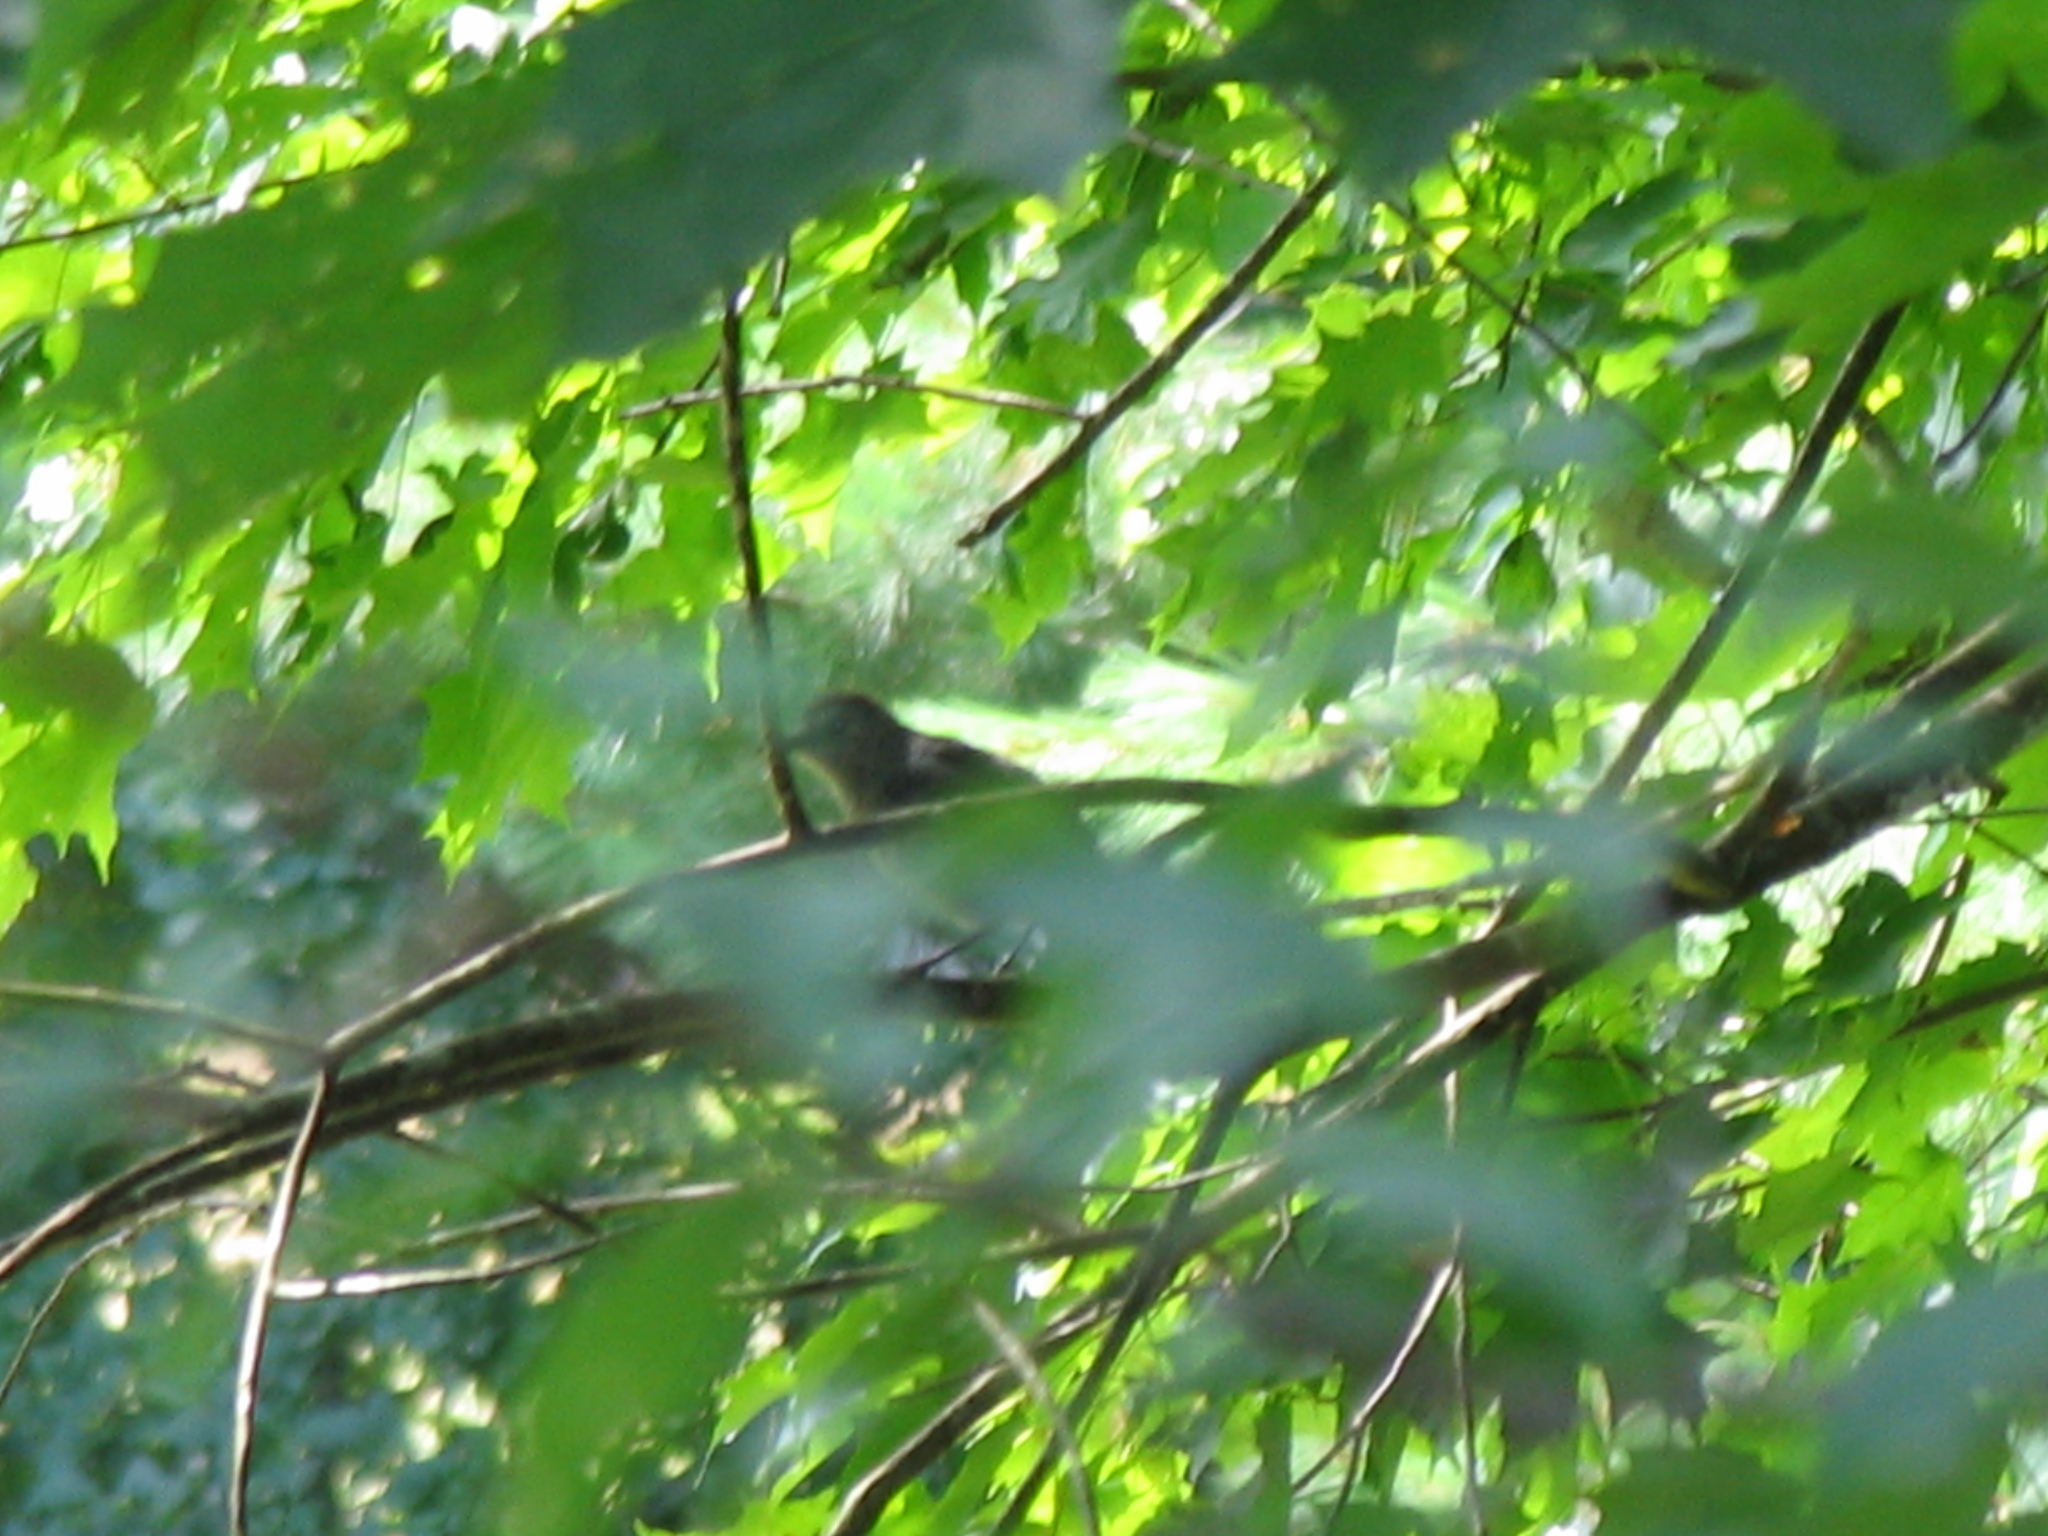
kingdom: Animalia
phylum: Chordata
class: Aves
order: Passeriformes
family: Mimidae
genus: Dumetella
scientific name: Dumetella carolinensis
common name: Gray catbird
